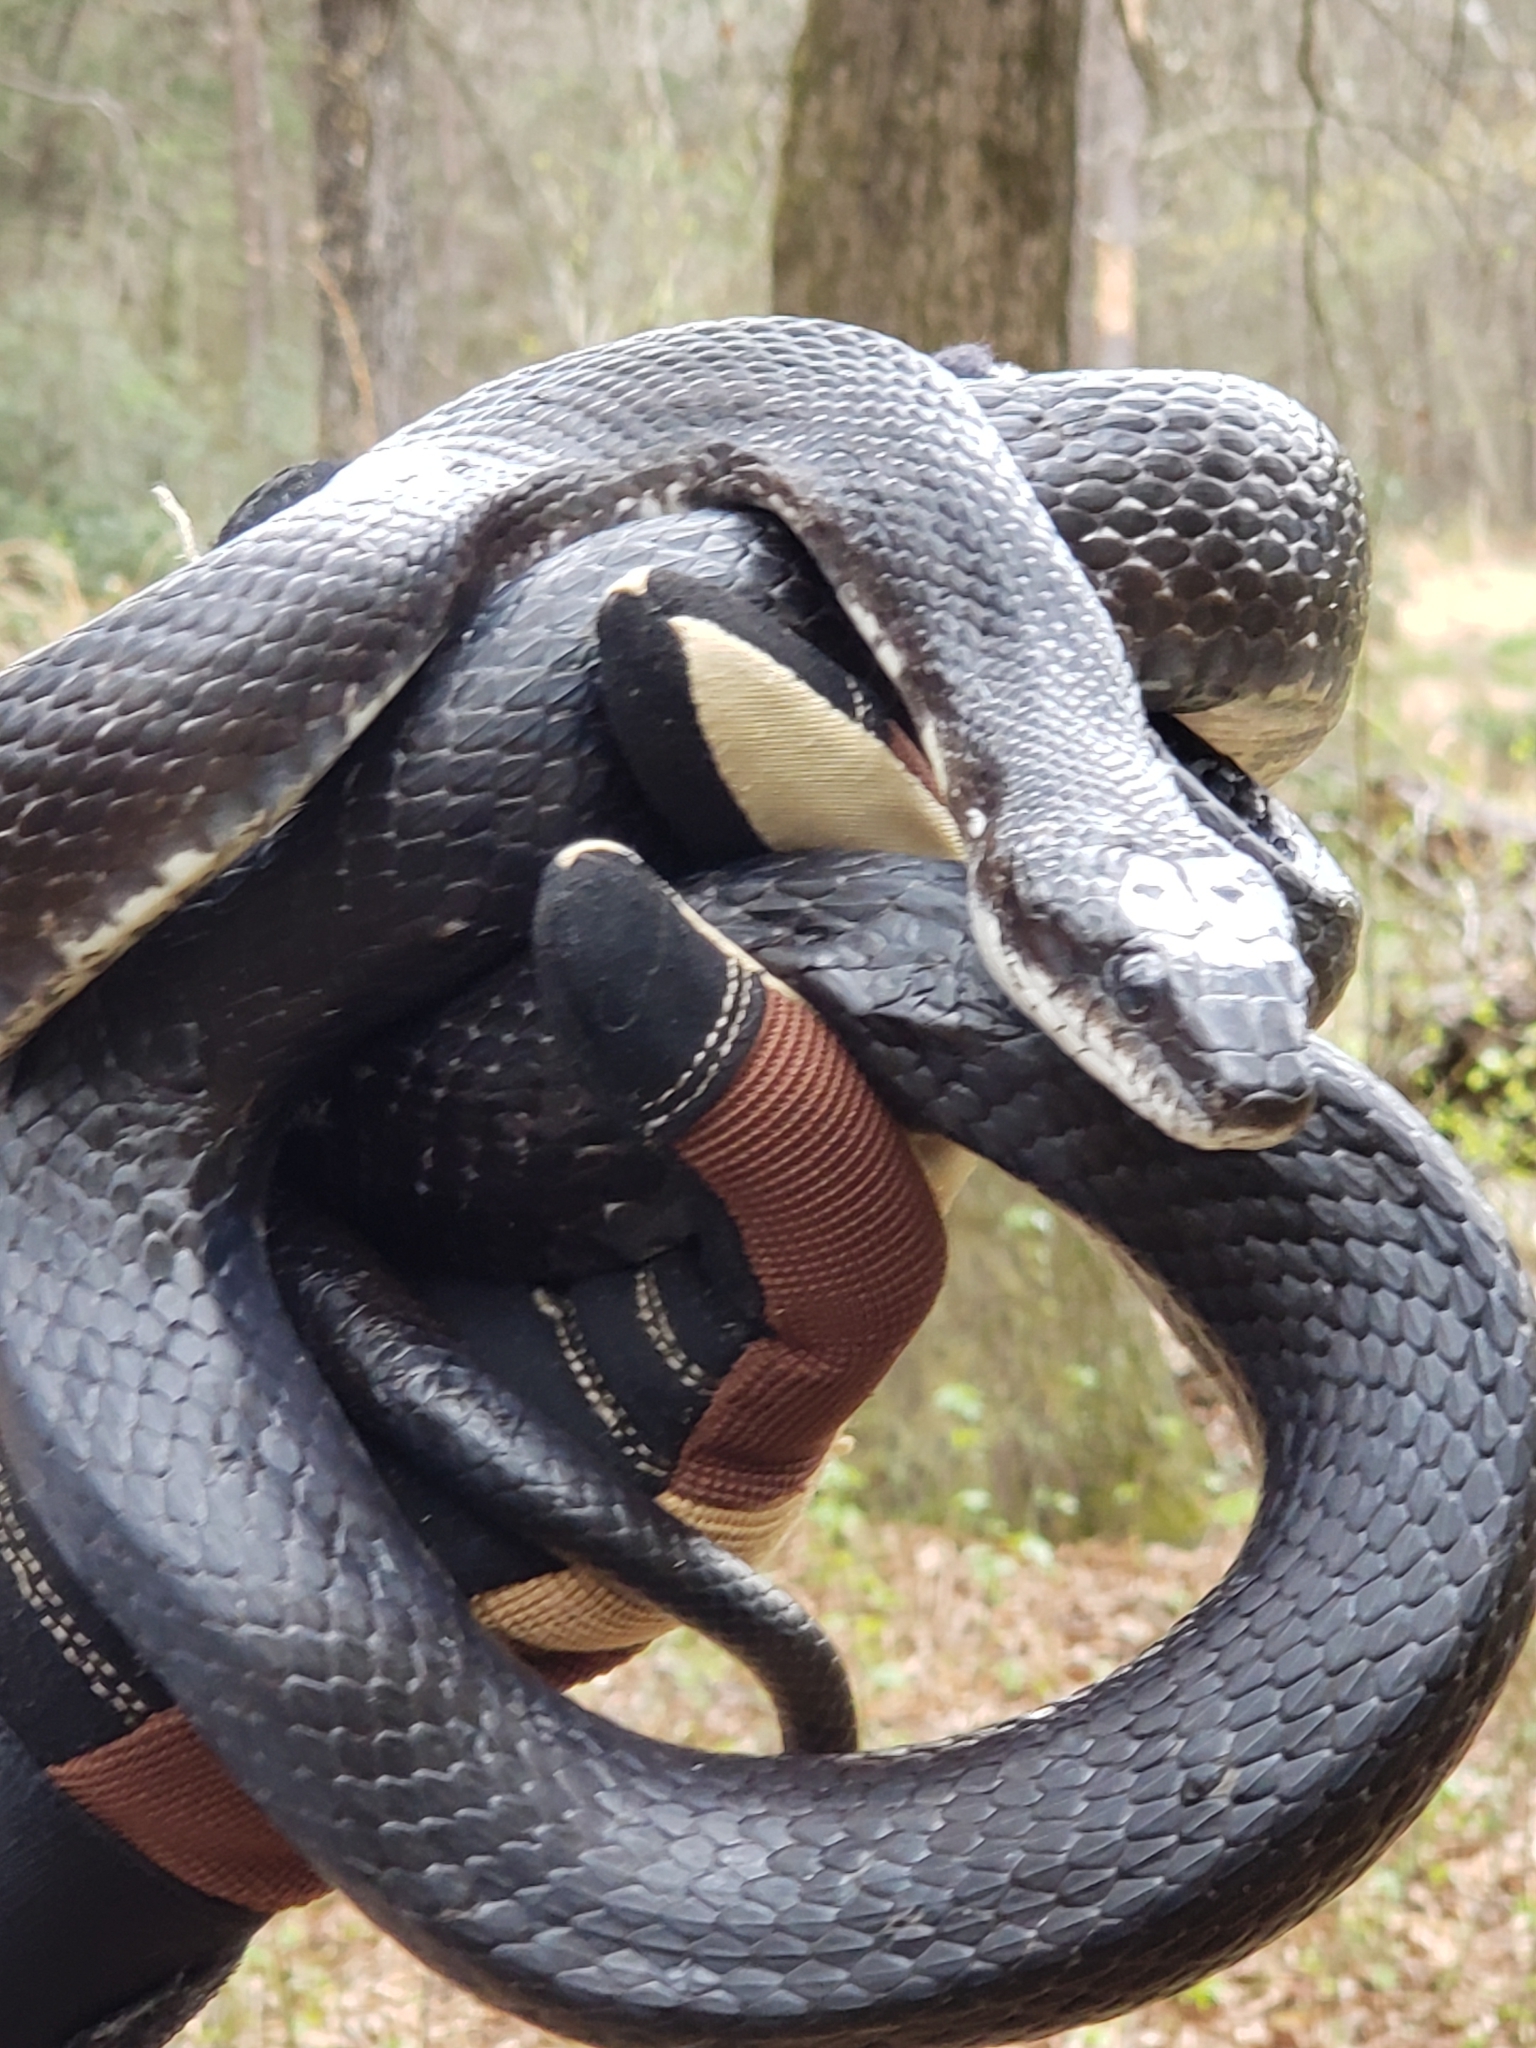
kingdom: Animalia
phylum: Chordata
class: Squamata
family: Colubridae
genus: Pantherophis
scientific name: Pantherophis alleghaniensis
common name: Eastern rat snake
